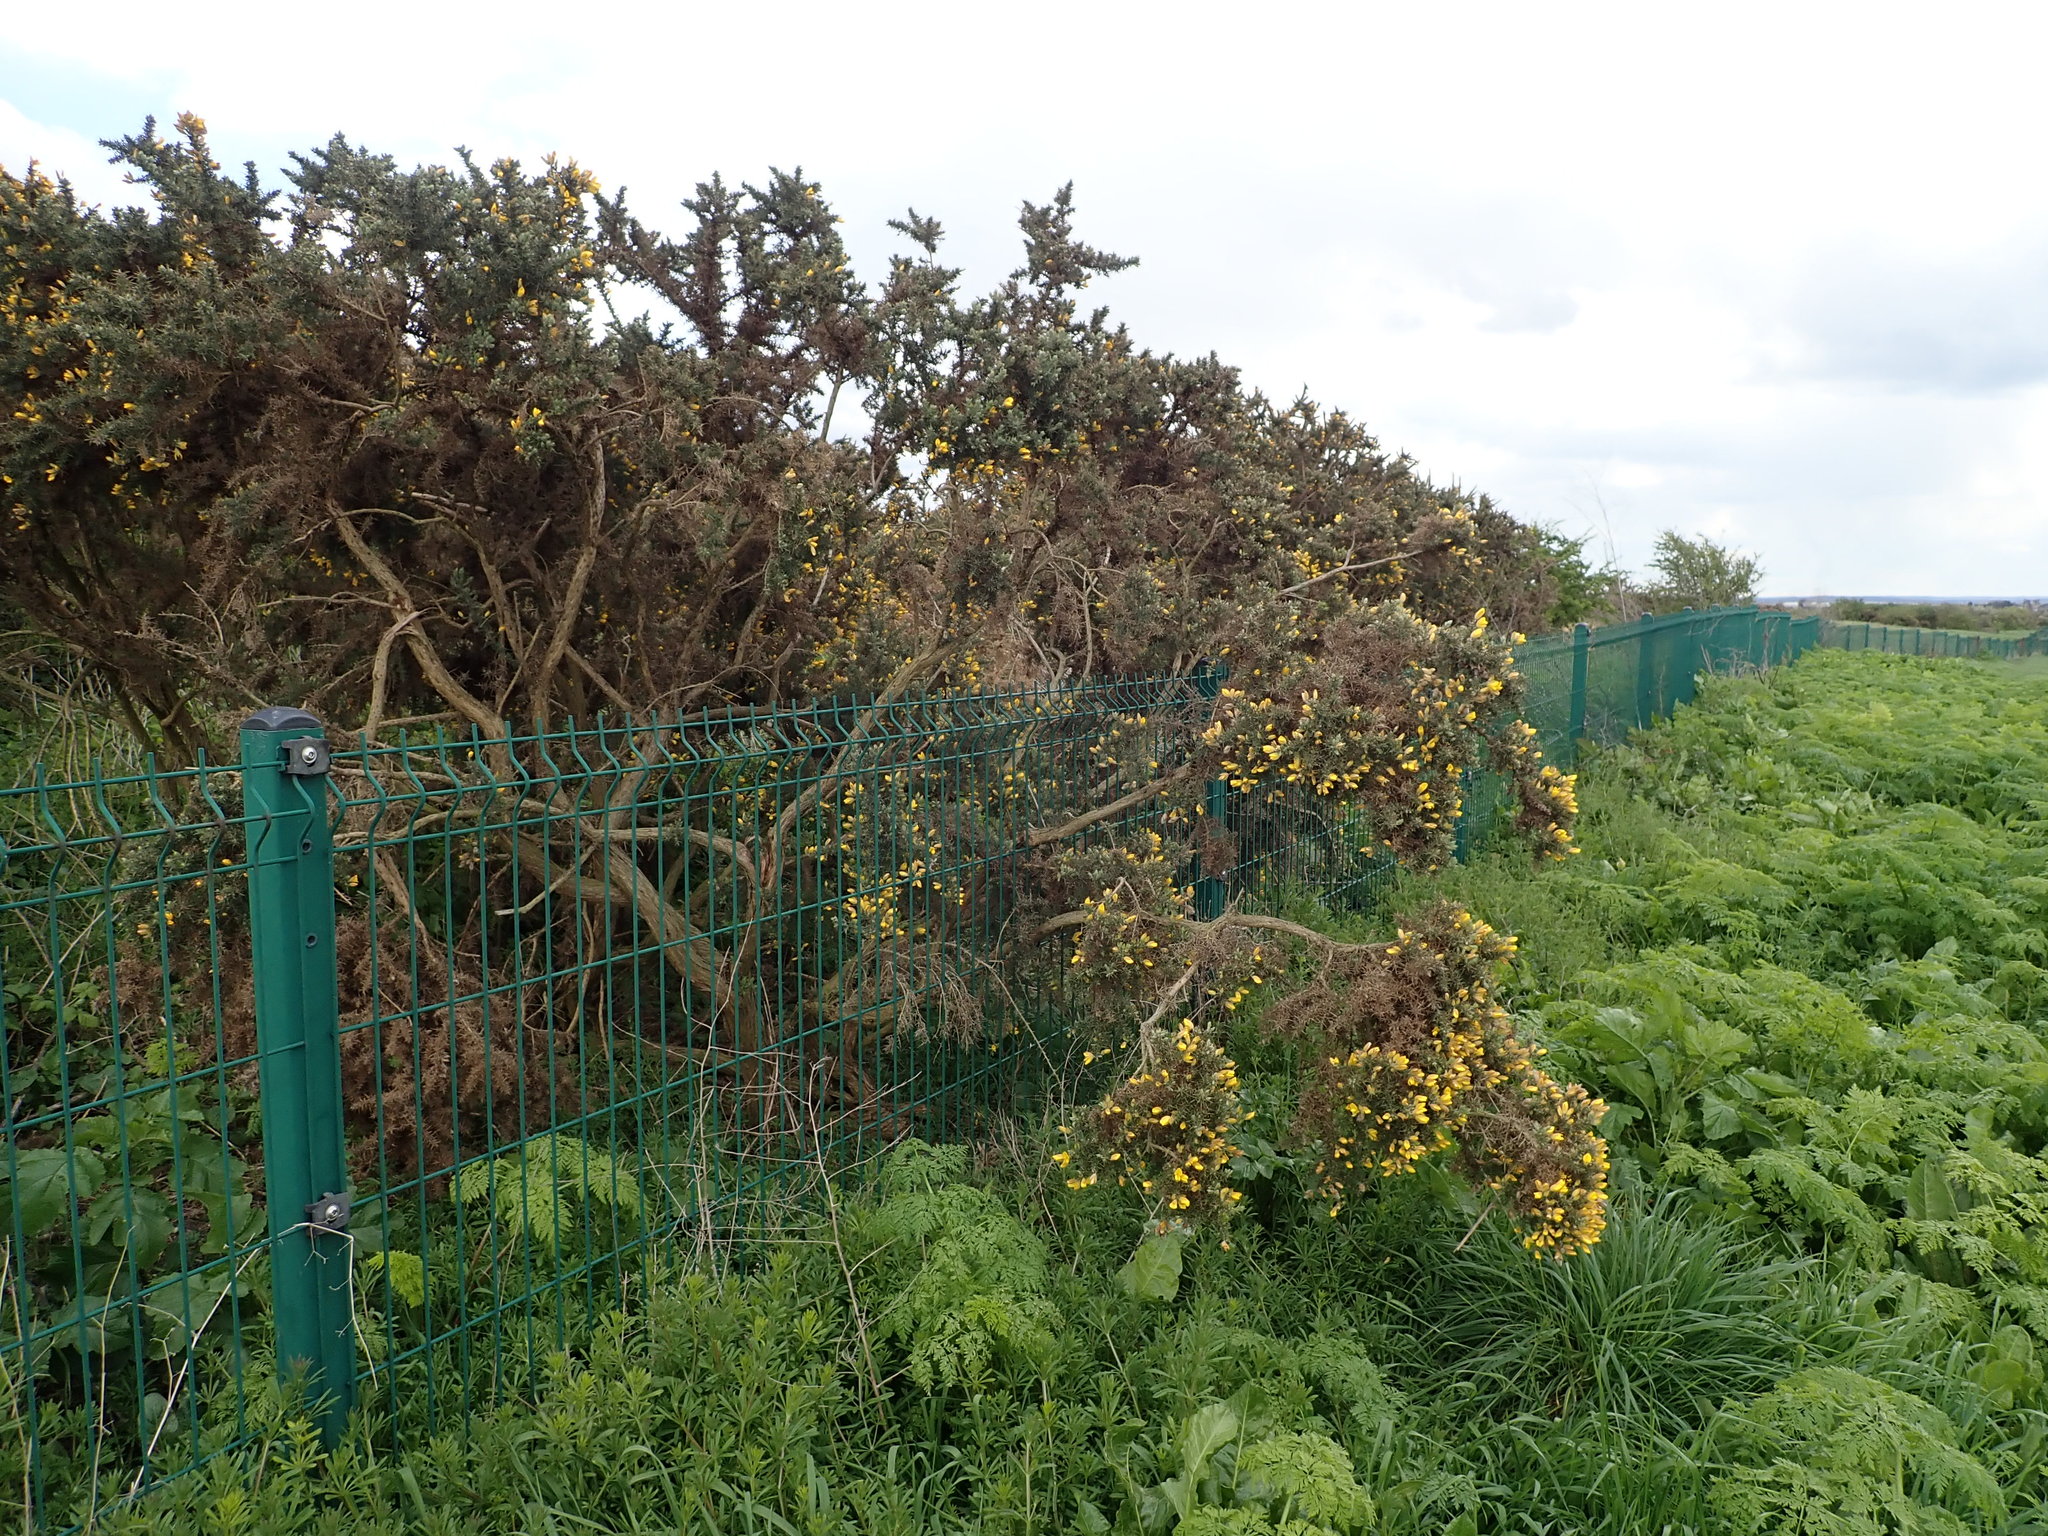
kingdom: Plantae
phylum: Tracheophyta
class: Magnoliopsida
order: Fabales
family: Fabaceae
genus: Ulex
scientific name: Ulex europaeus
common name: Common gorse
